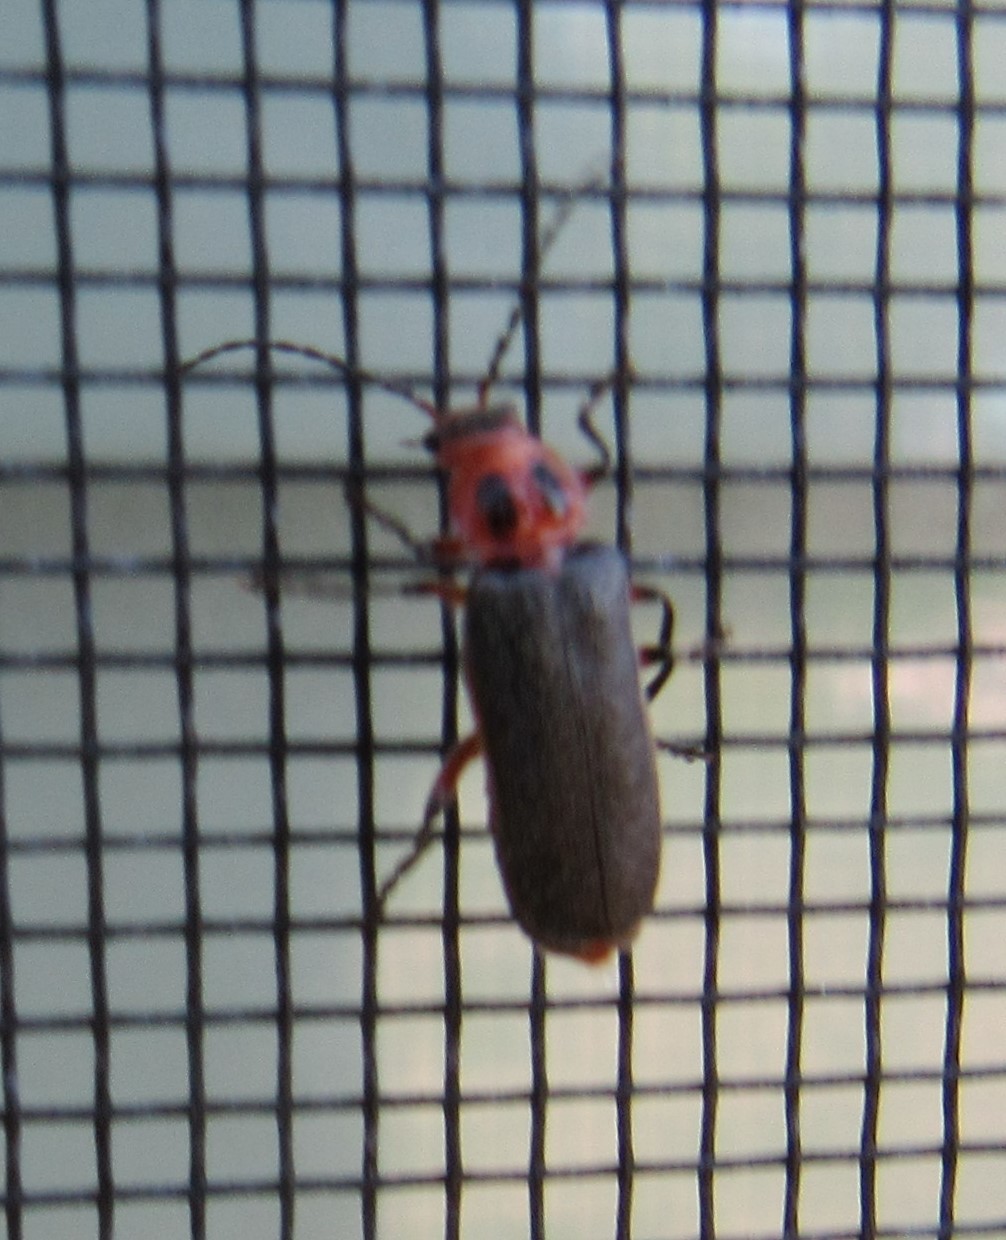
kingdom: Animalia
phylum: Arthropoda
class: Insecta
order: Coleoptera
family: Cantharidae
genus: Atalantycha
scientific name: Atalantycha bilineata
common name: Two-lined leatherwing
